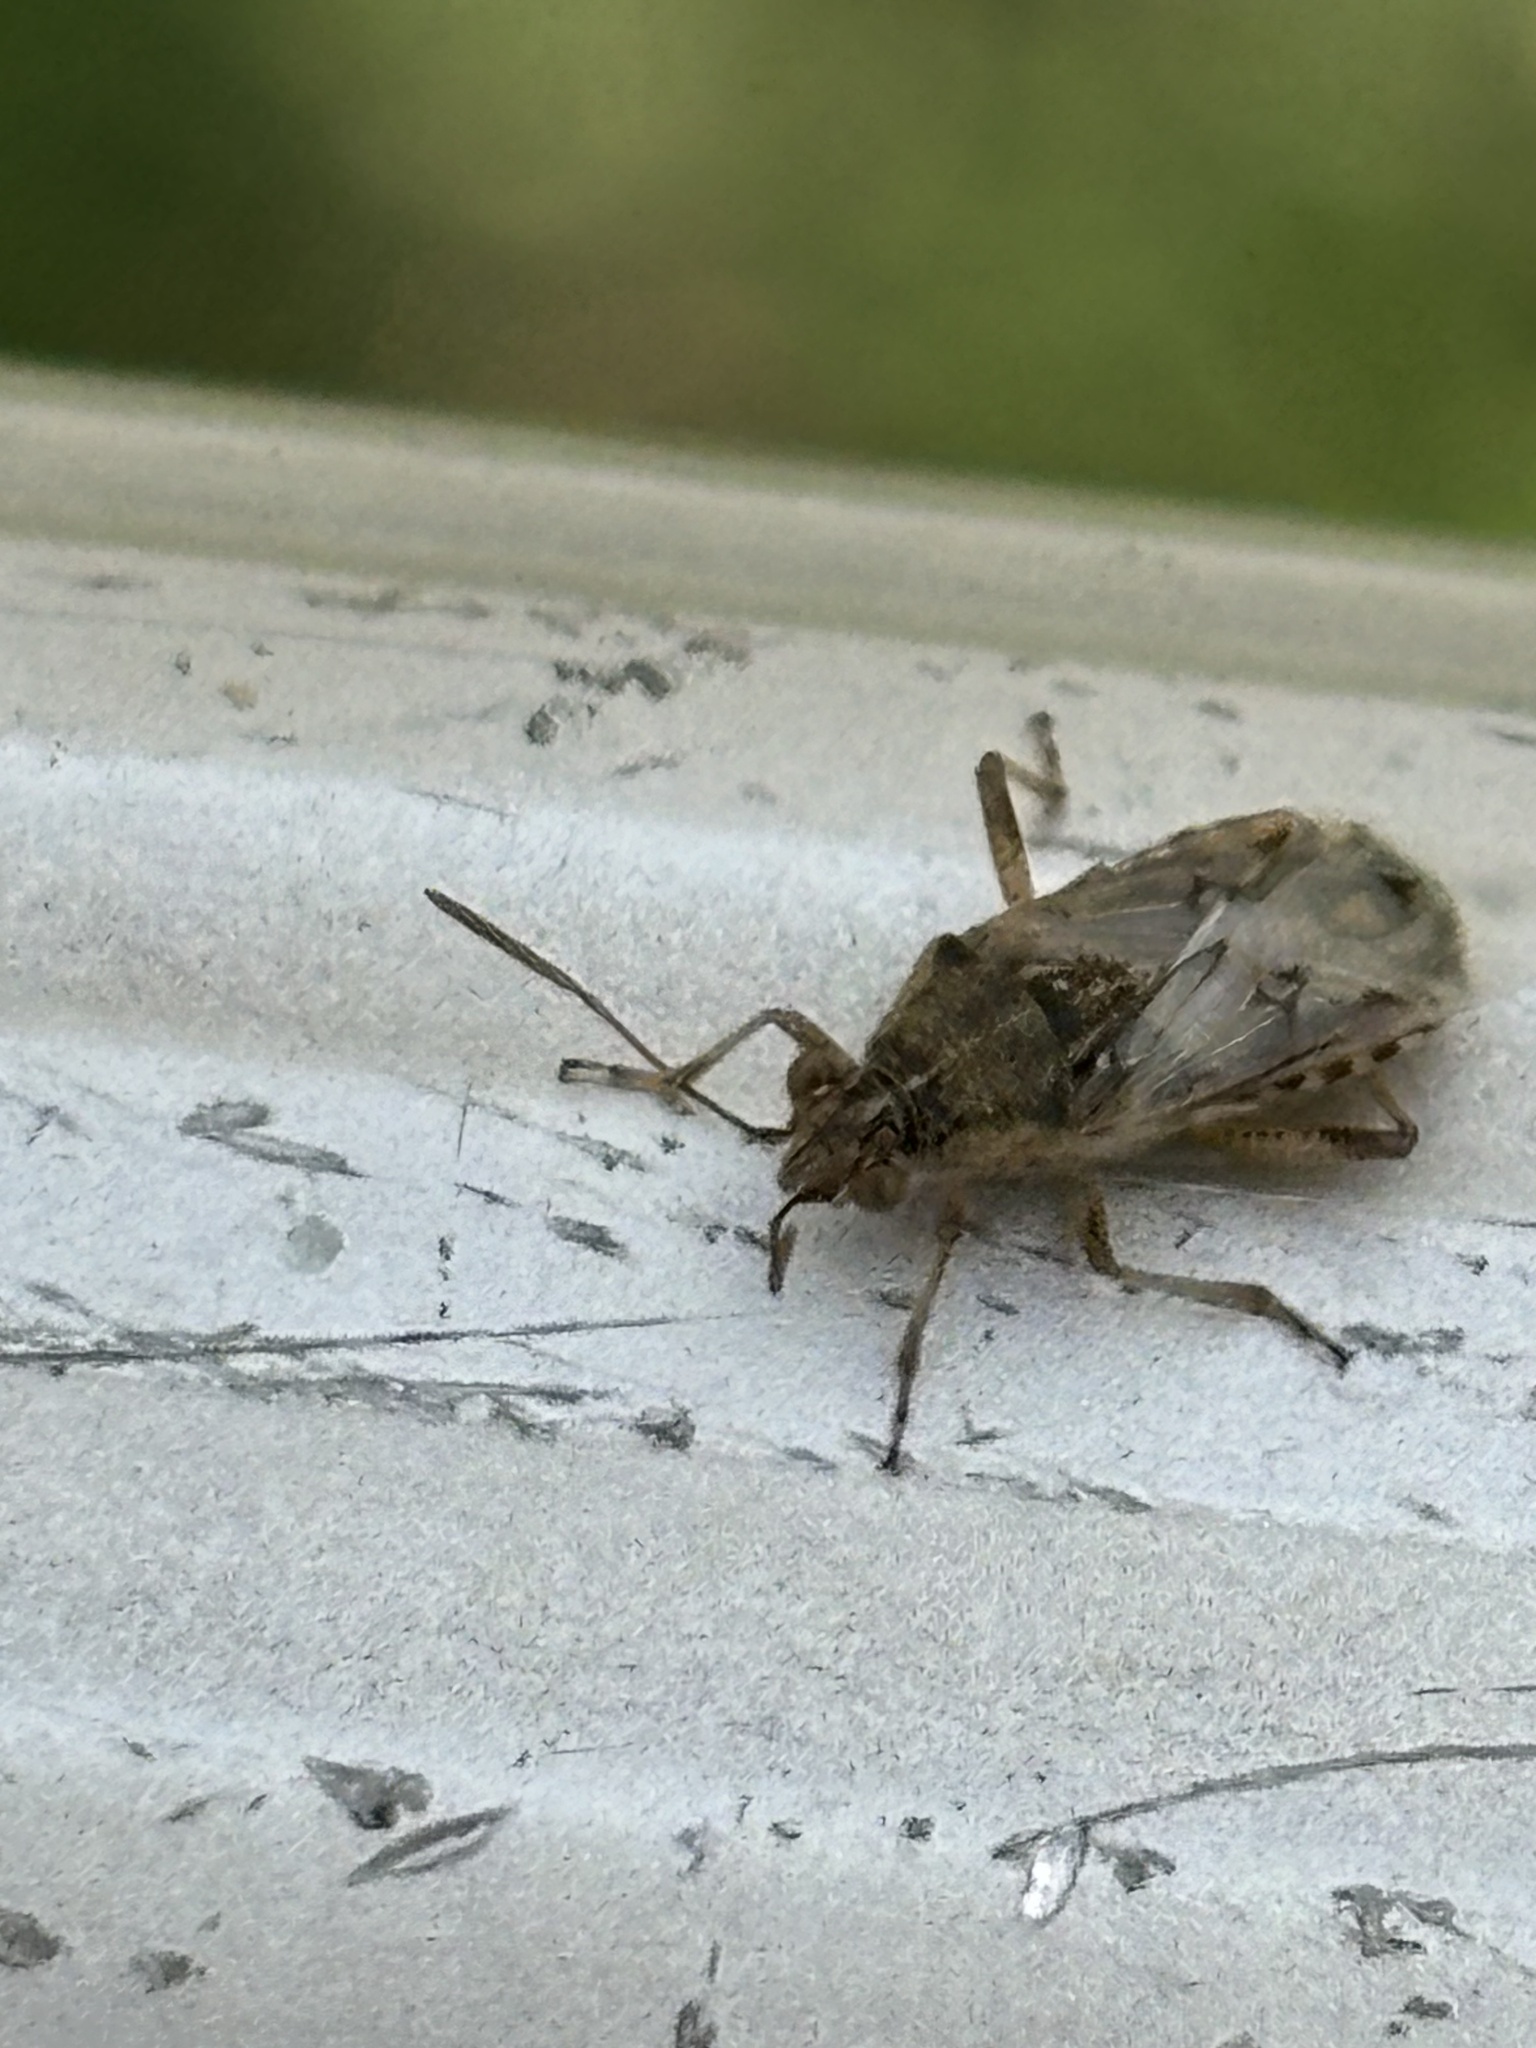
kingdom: Animalia
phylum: Arthropoda
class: Insecta
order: Hemiptera
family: Rhopalidae
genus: Liorhyssus
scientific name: Liorhyssus hyalinus
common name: Scentless plant bug
